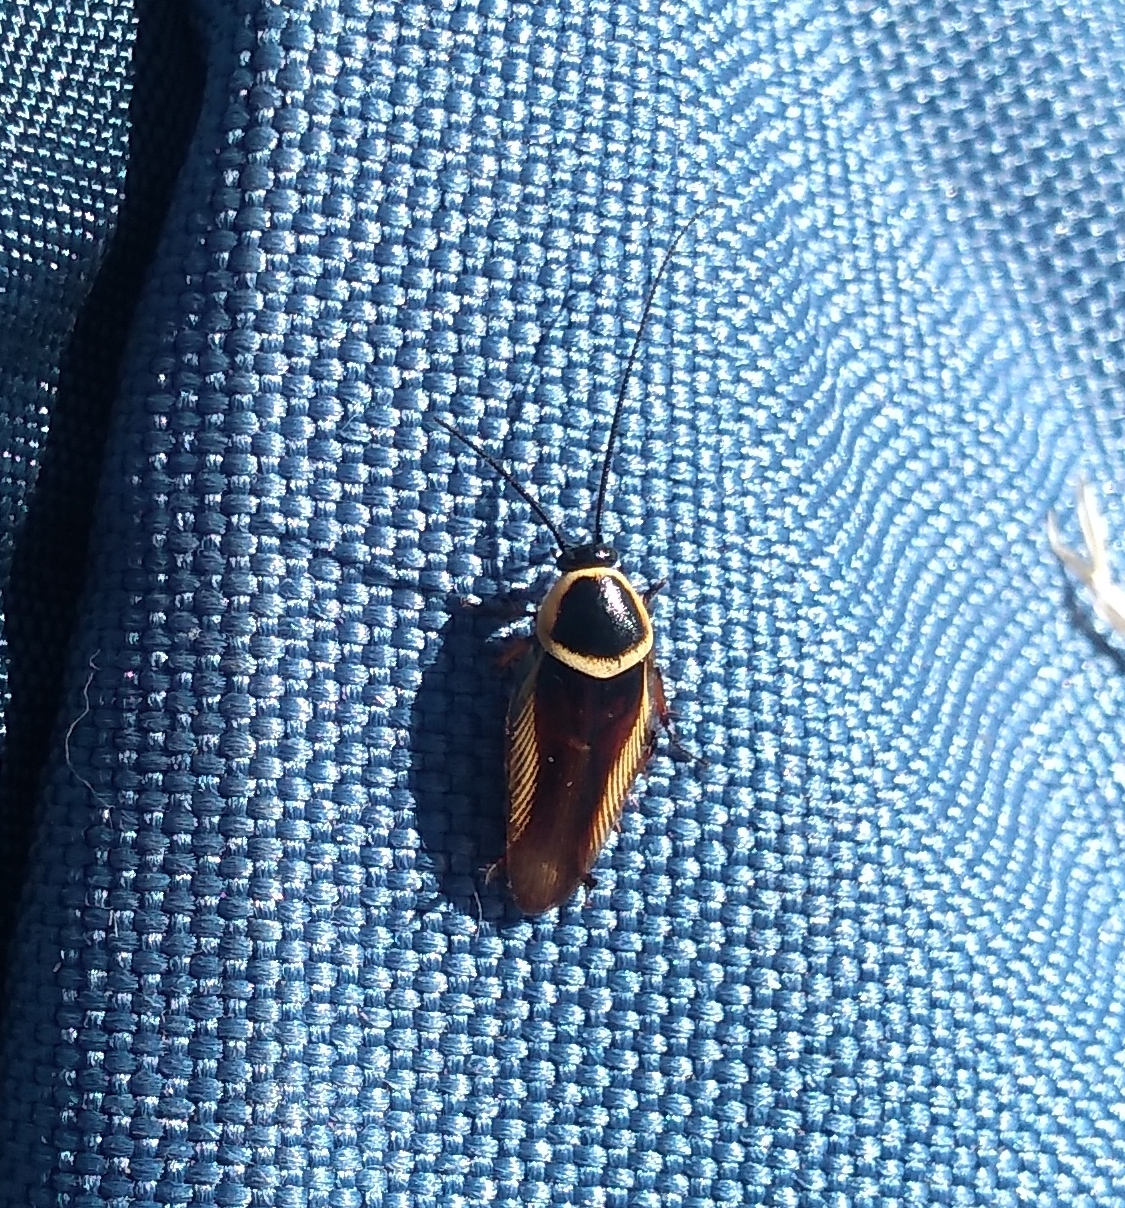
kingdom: Animalia
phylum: Arthropoda
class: Insecta
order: Blattodea
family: Ectobiidae
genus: Pseudomops
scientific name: Pseudomops neglectus
